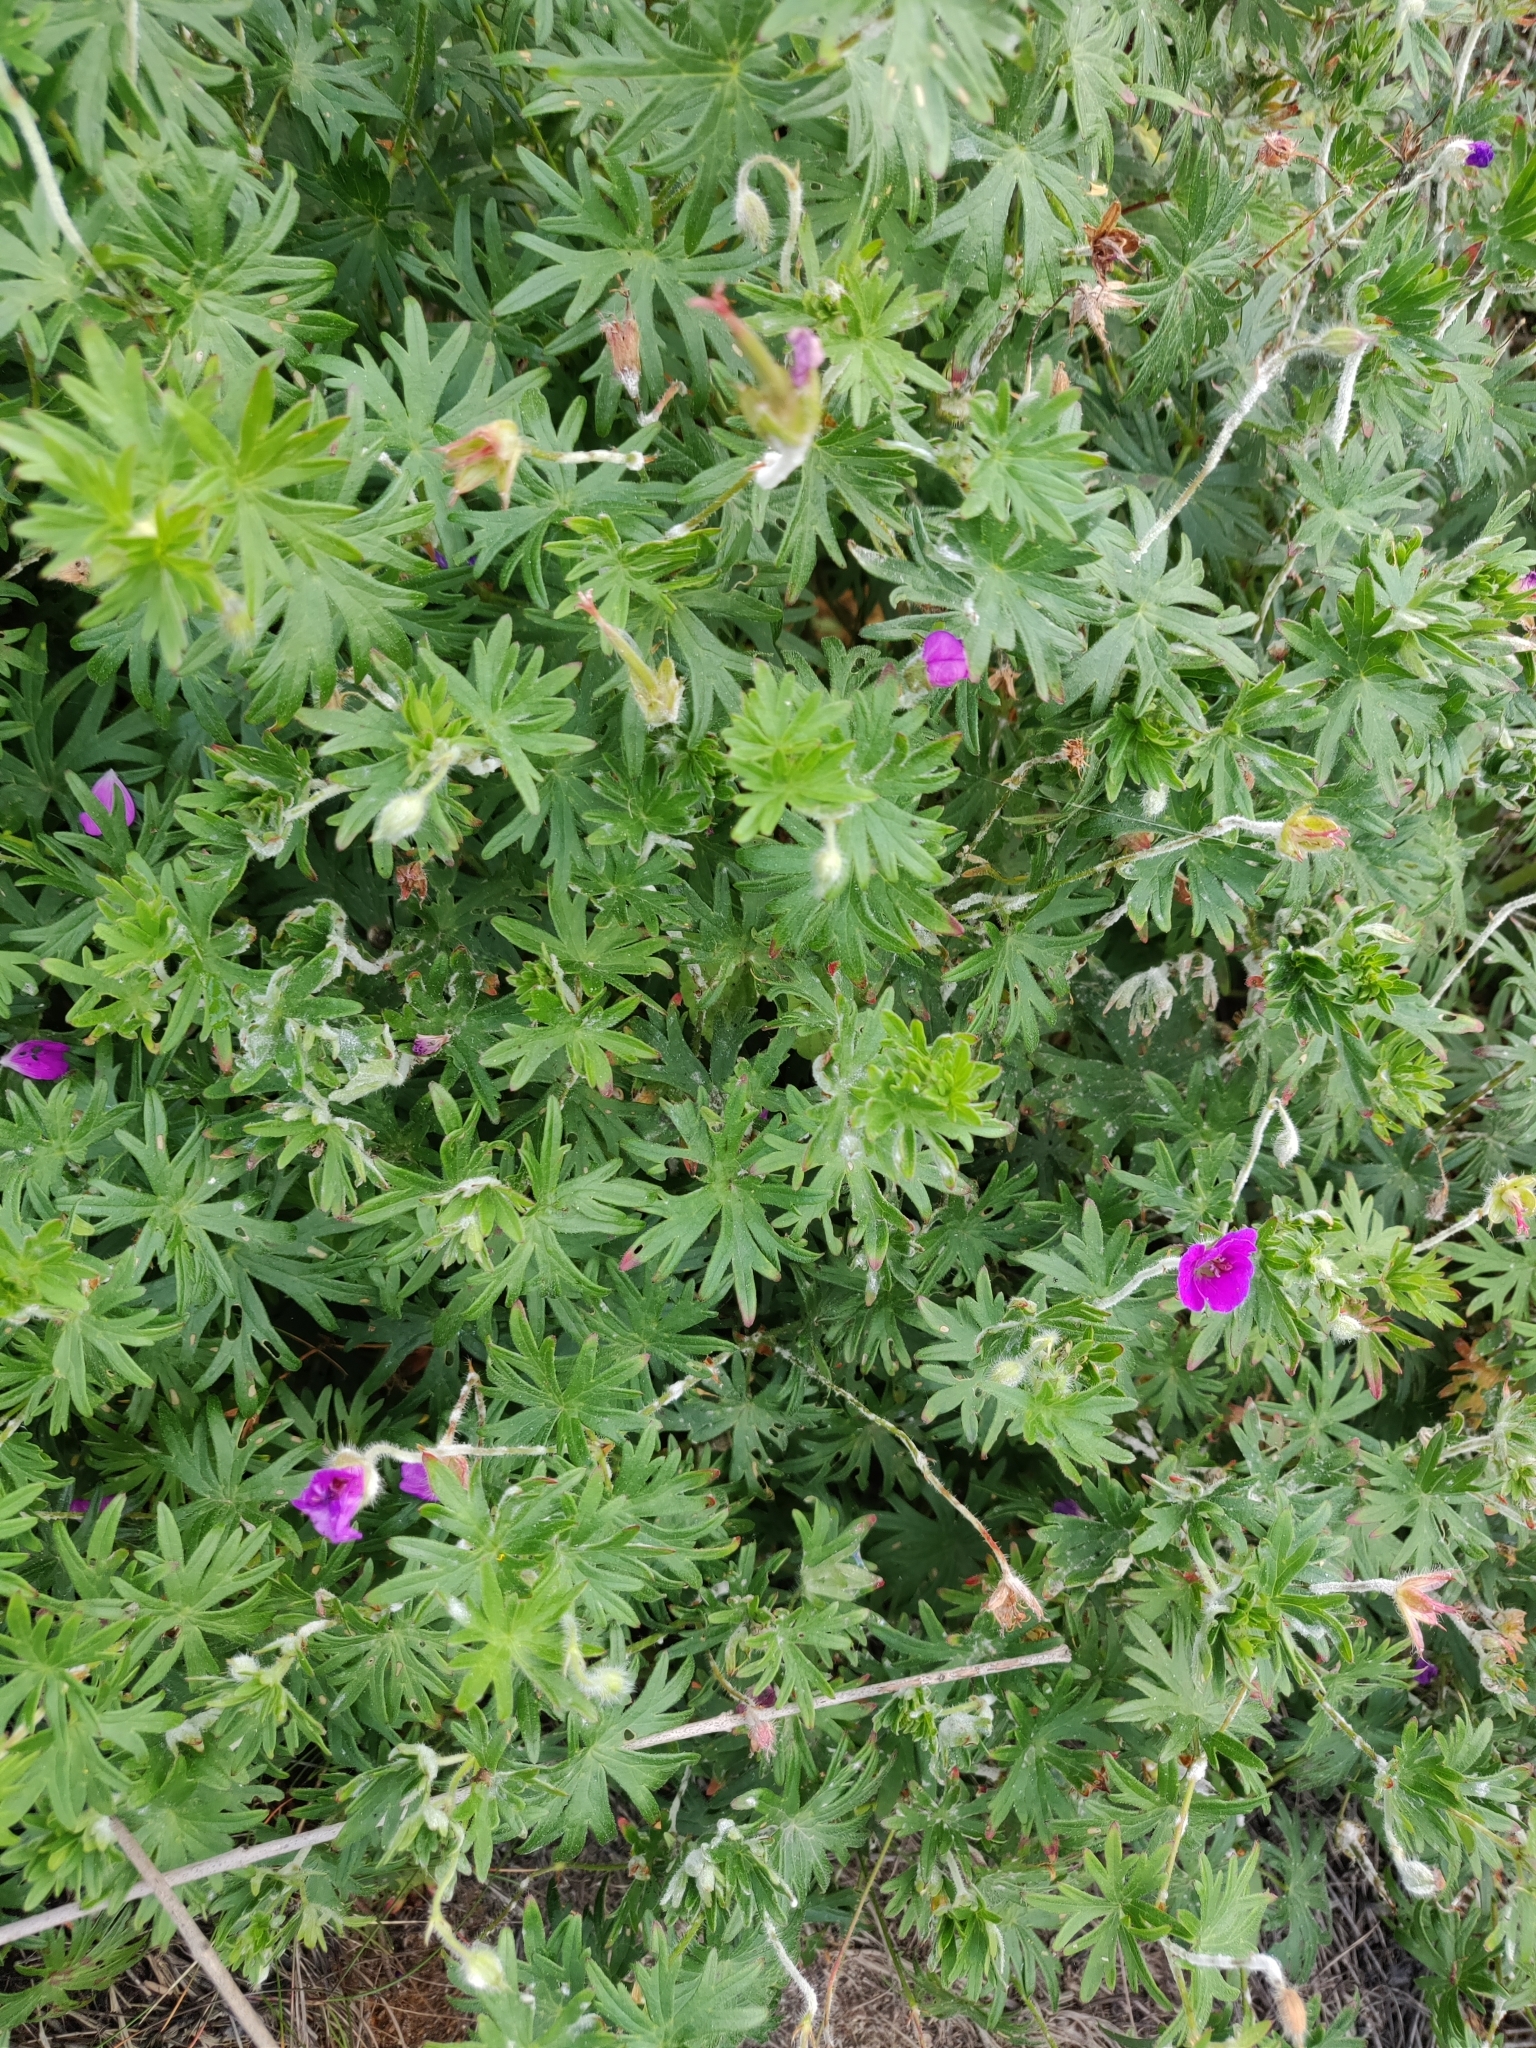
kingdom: Plantae
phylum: Tracheophyta
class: Magnoliopsida
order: Geraniales
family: Geraniaceae
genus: Geranium
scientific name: Geranium sanguineum
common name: Bloody crane's-bill
